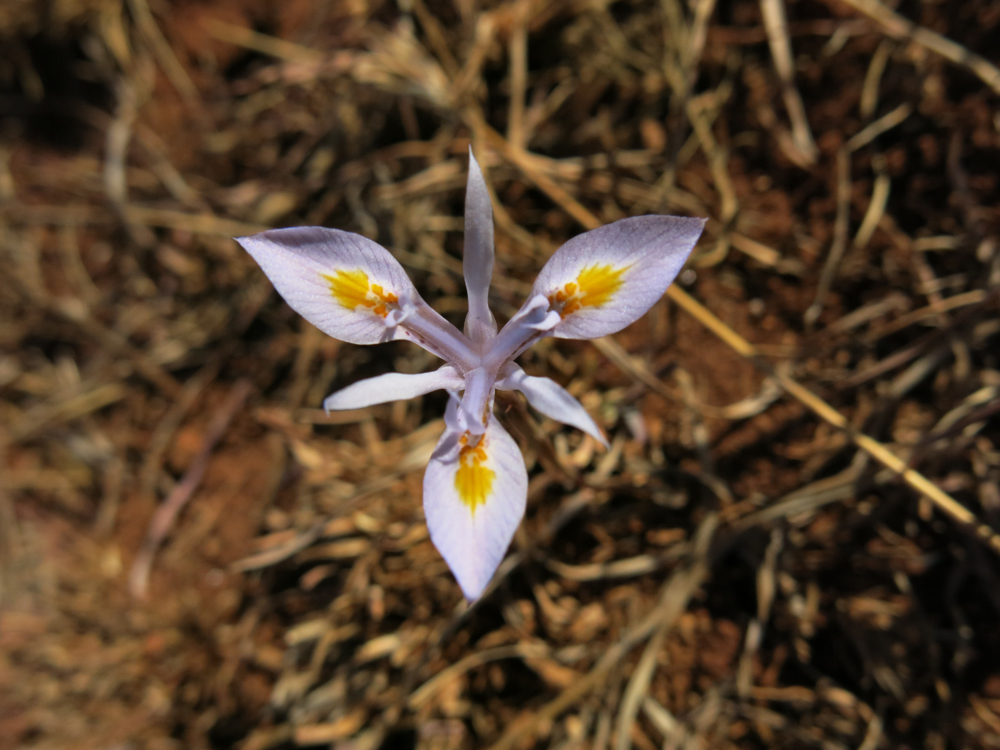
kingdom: Plantae
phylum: Tracheophyta
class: Liliopsida
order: Asparagales
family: Iridaceae
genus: Moraea
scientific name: Moraea stricta
